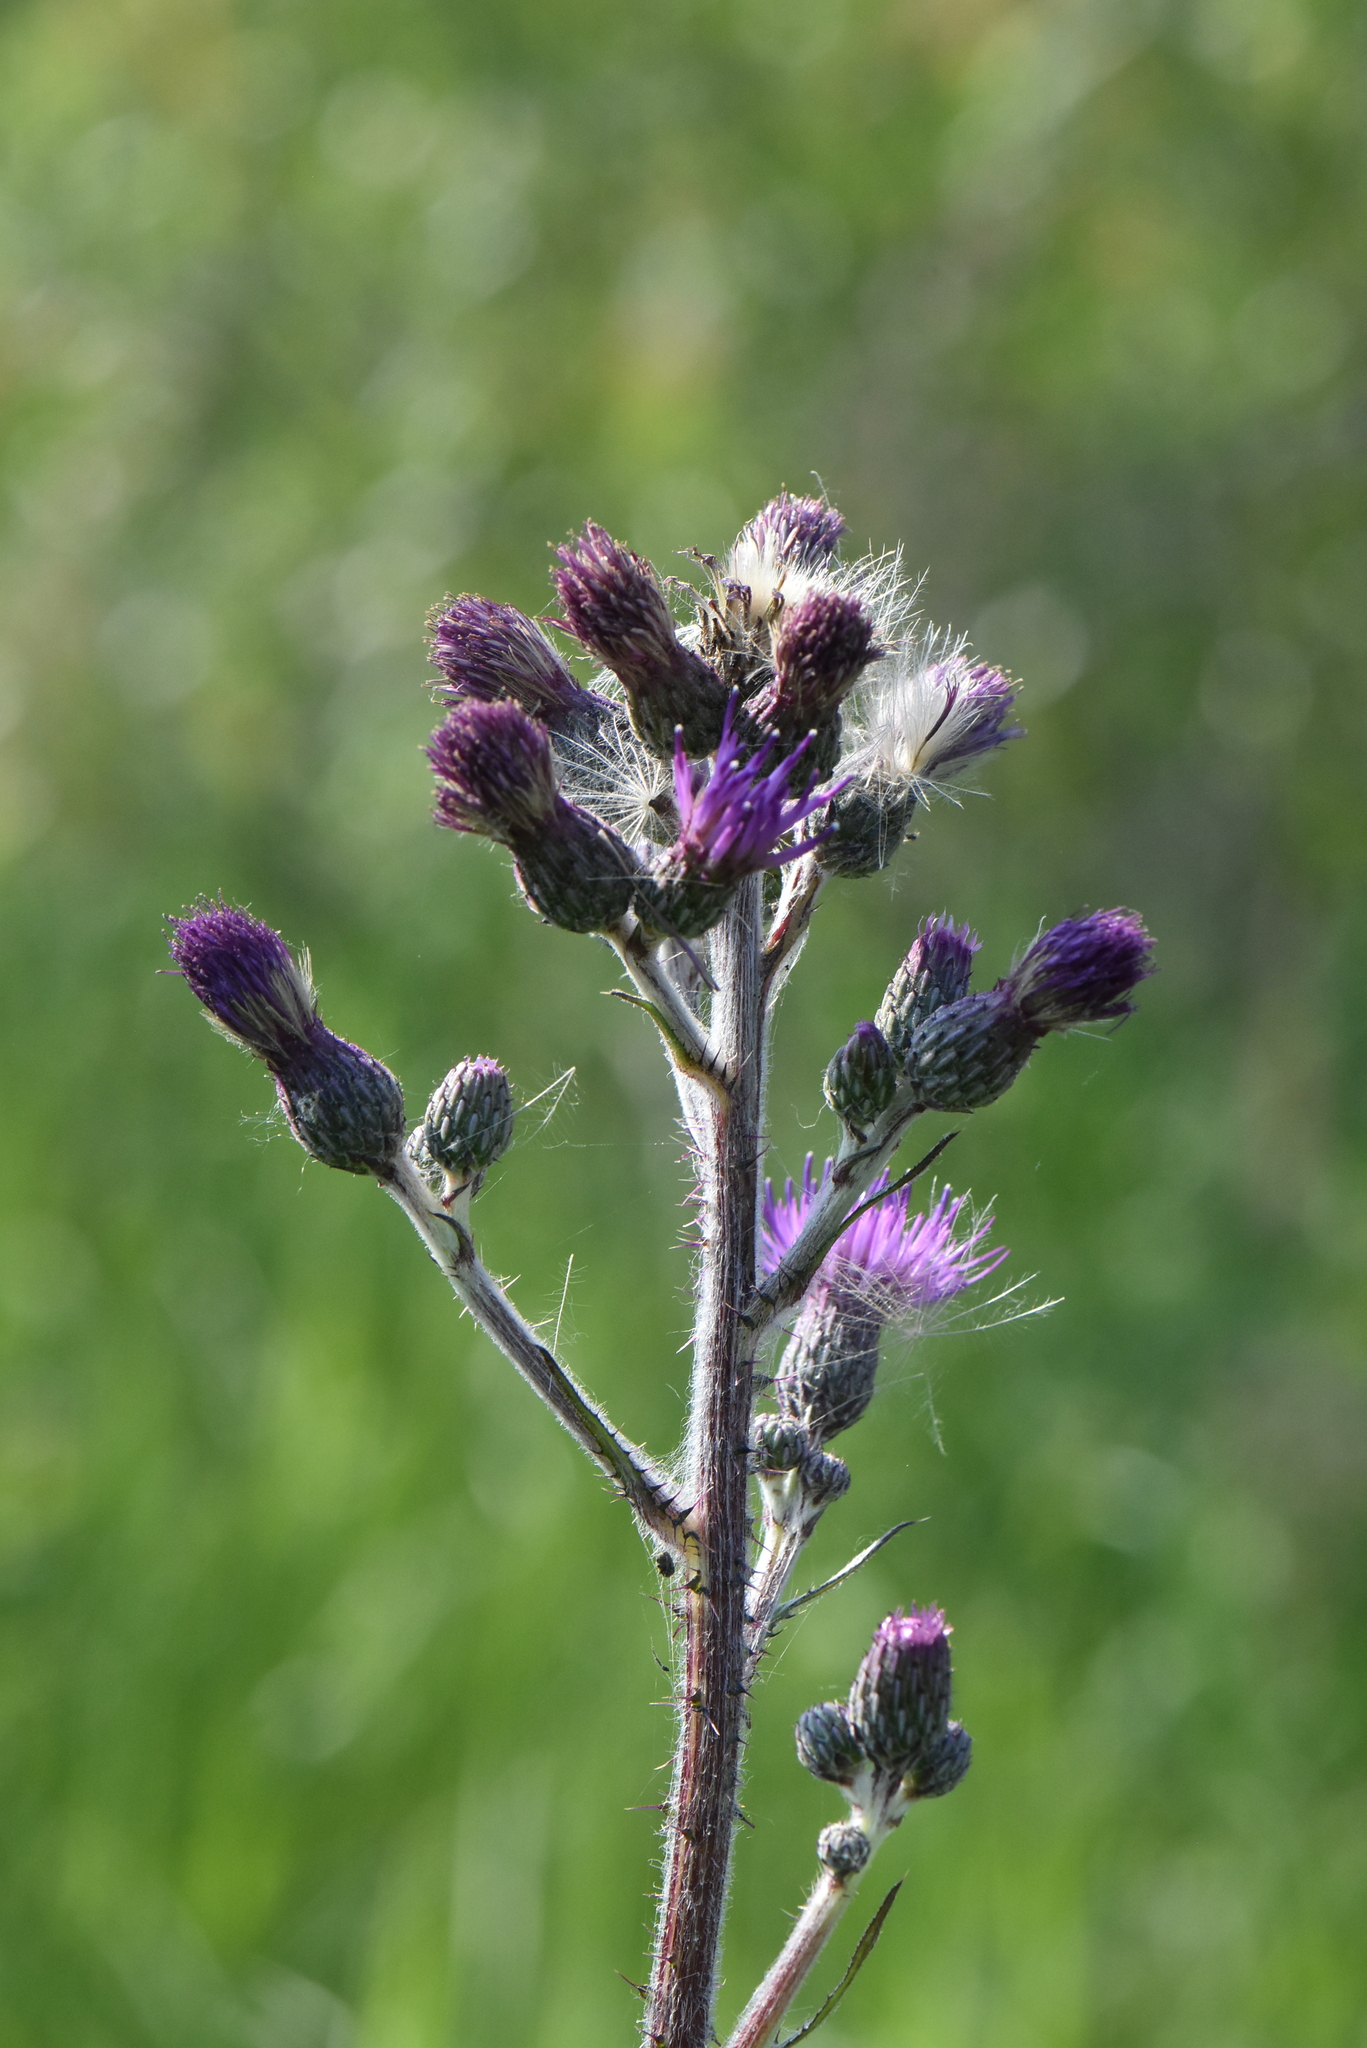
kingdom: Plantae
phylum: Tracheophyta
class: Magnoliopsida
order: Asterales
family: Asteraceae
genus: Cirsium
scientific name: Cirsium palustre
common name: Marsh thistle
